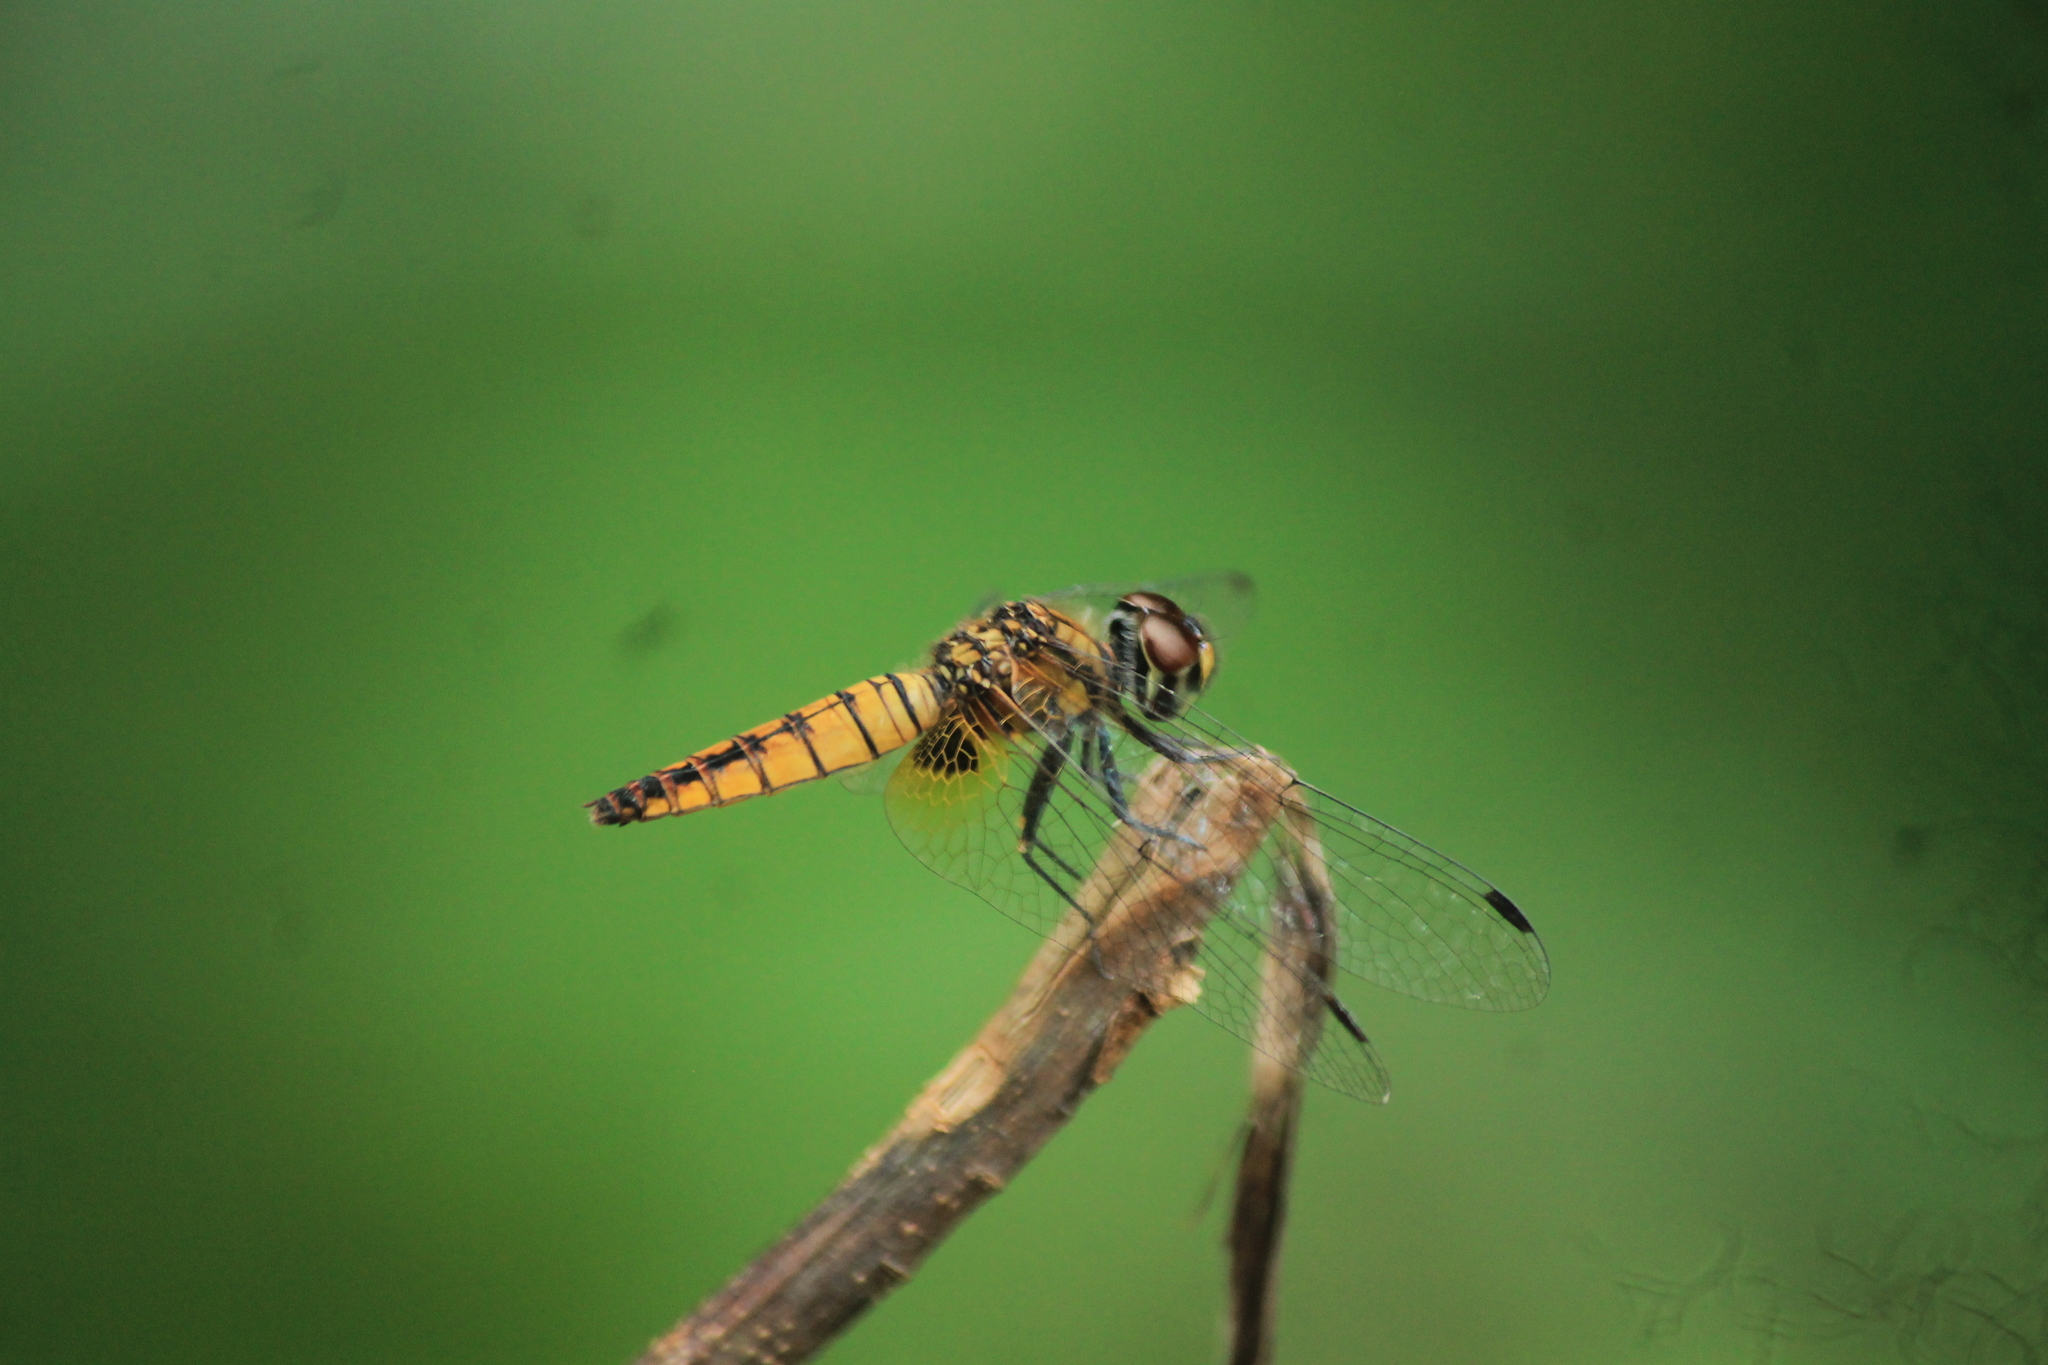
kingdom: Animalia
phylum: Arthropoda
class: Insecta
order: Odonata
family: Libellulidae
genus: Aethriamanta
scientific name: Aethriamanta brevipennis
